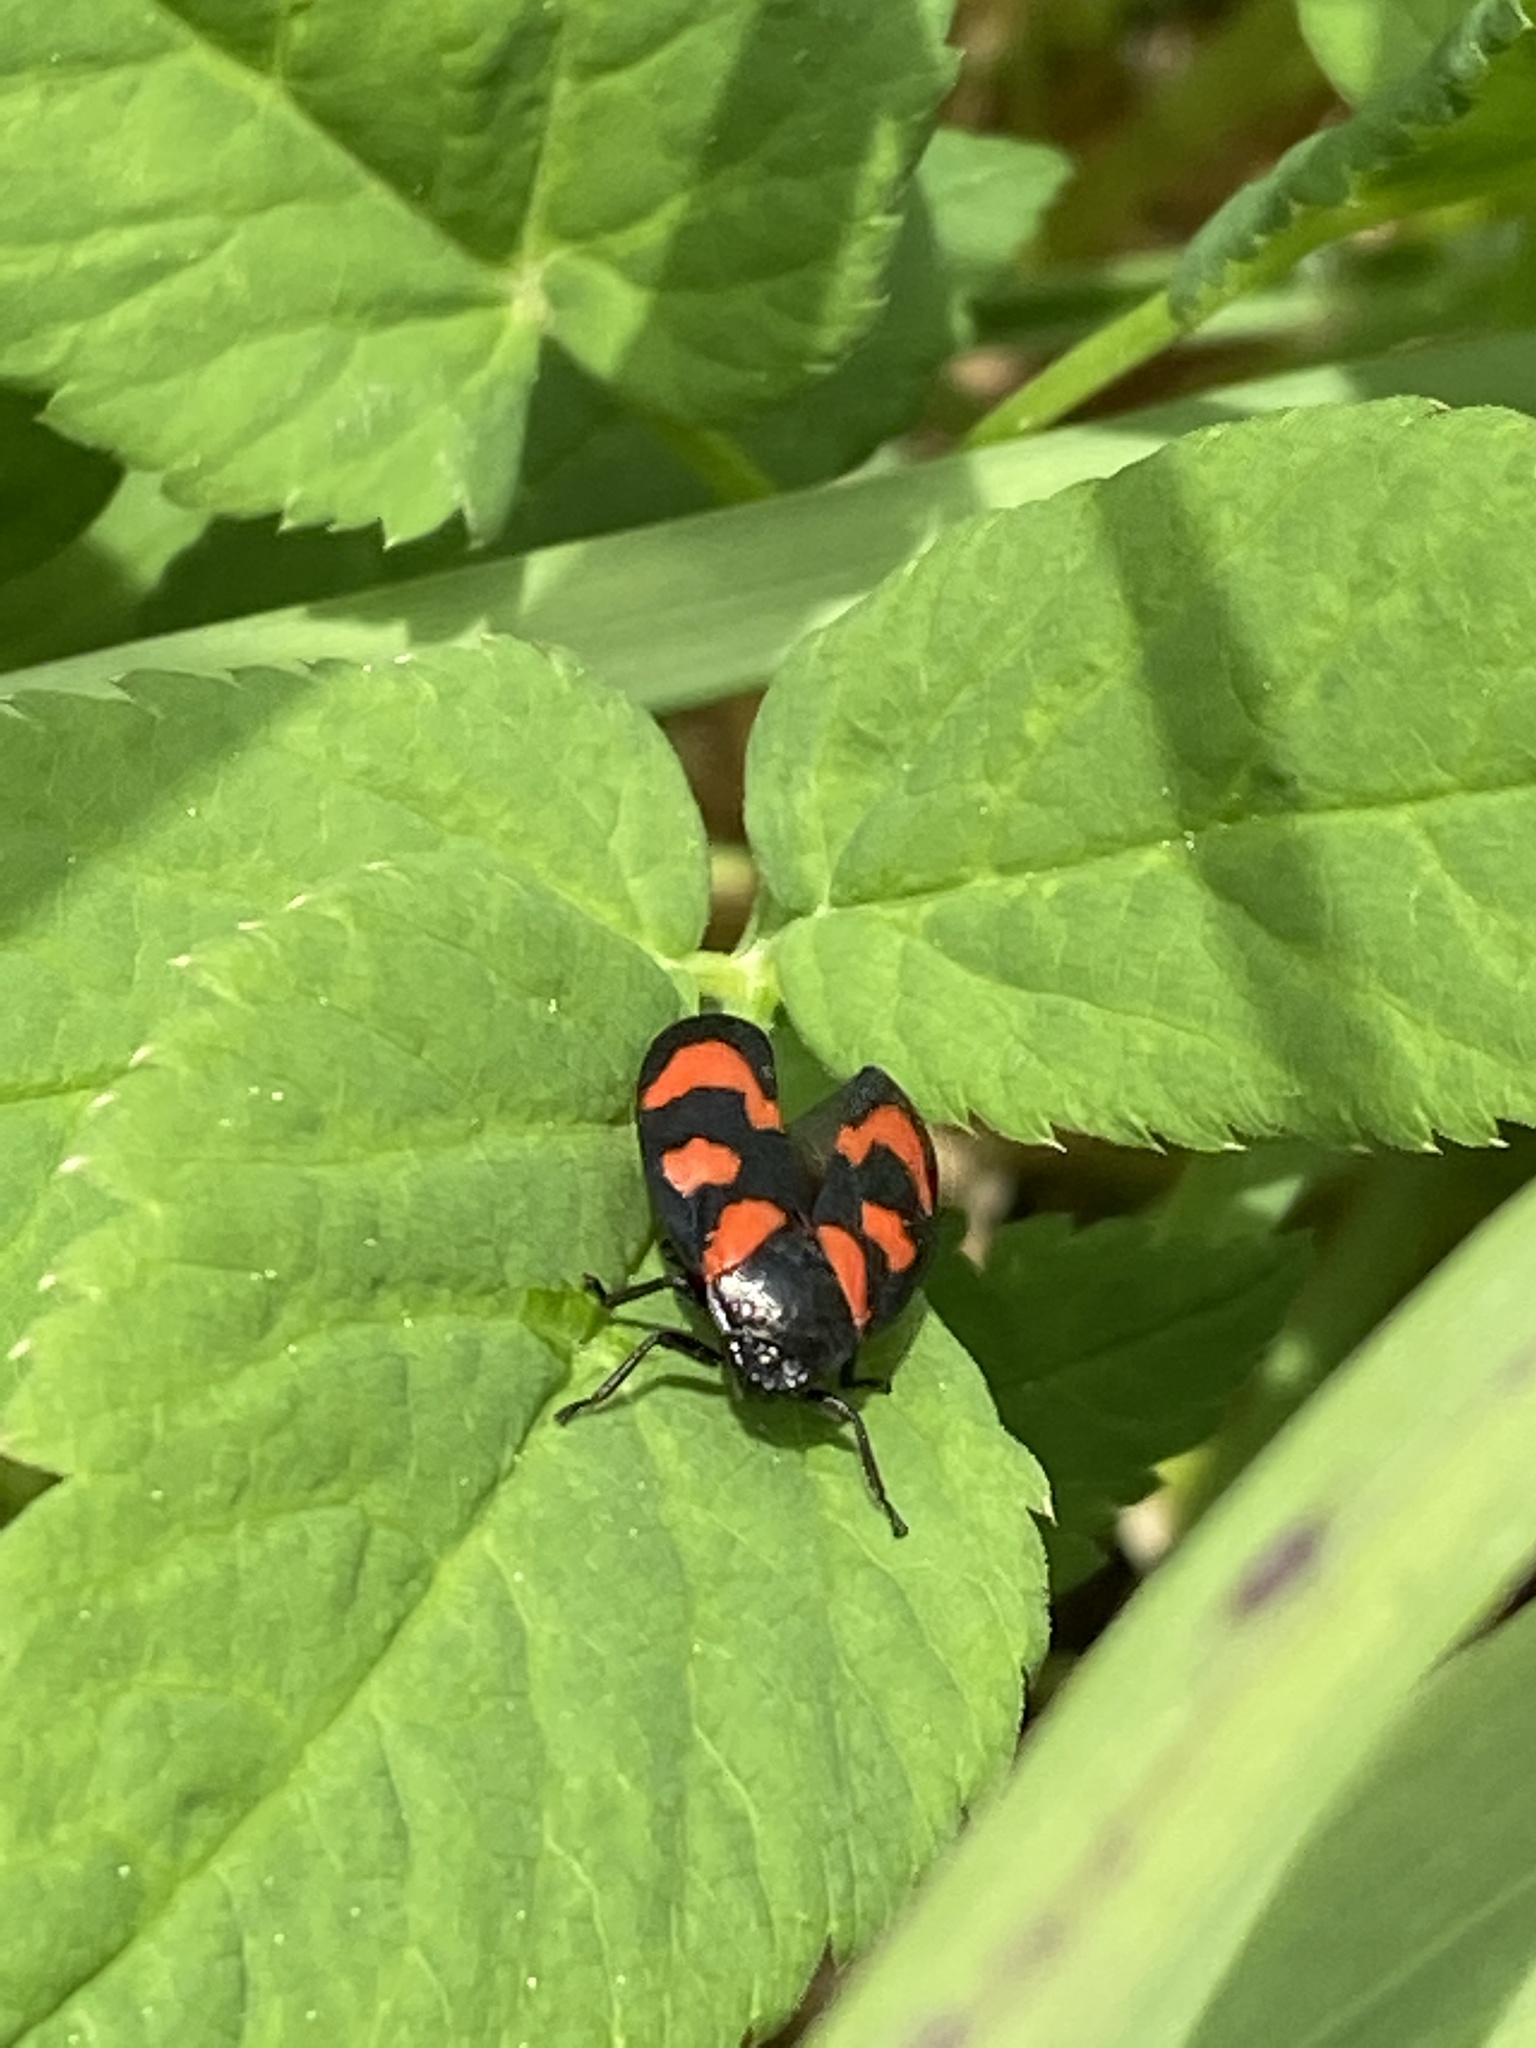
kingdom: Animalia
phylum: Arthropoda
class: Insecta
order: Hemiptera
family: Cercopidae
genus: Cercopis
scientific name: Cercopis vulnerata
